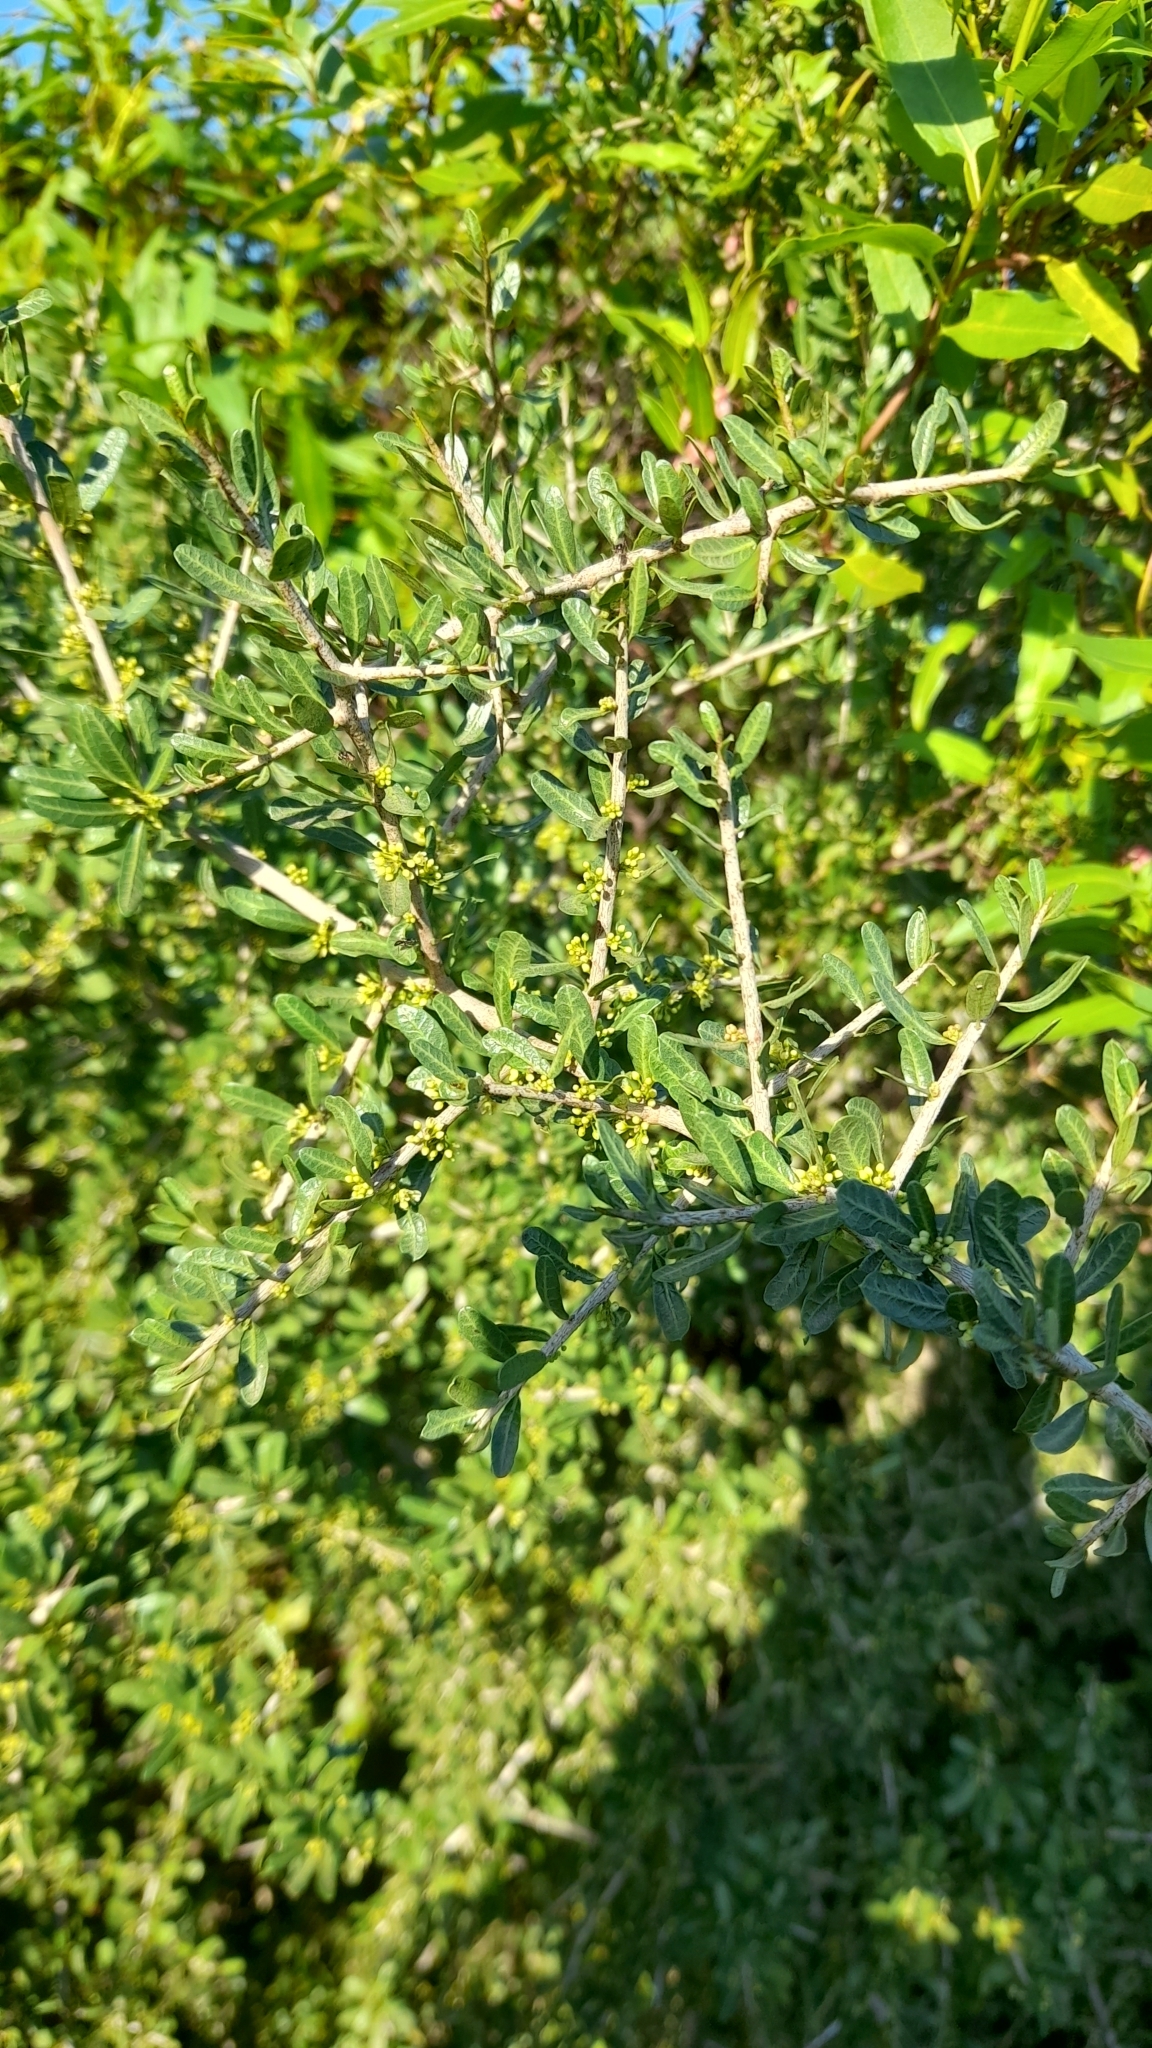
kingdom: Plantae
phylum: Tracheophyta
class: Magnoliopsida
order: Sapindales
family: Anacardiaceae
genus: Schinus
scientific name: Schinus fasciculata
